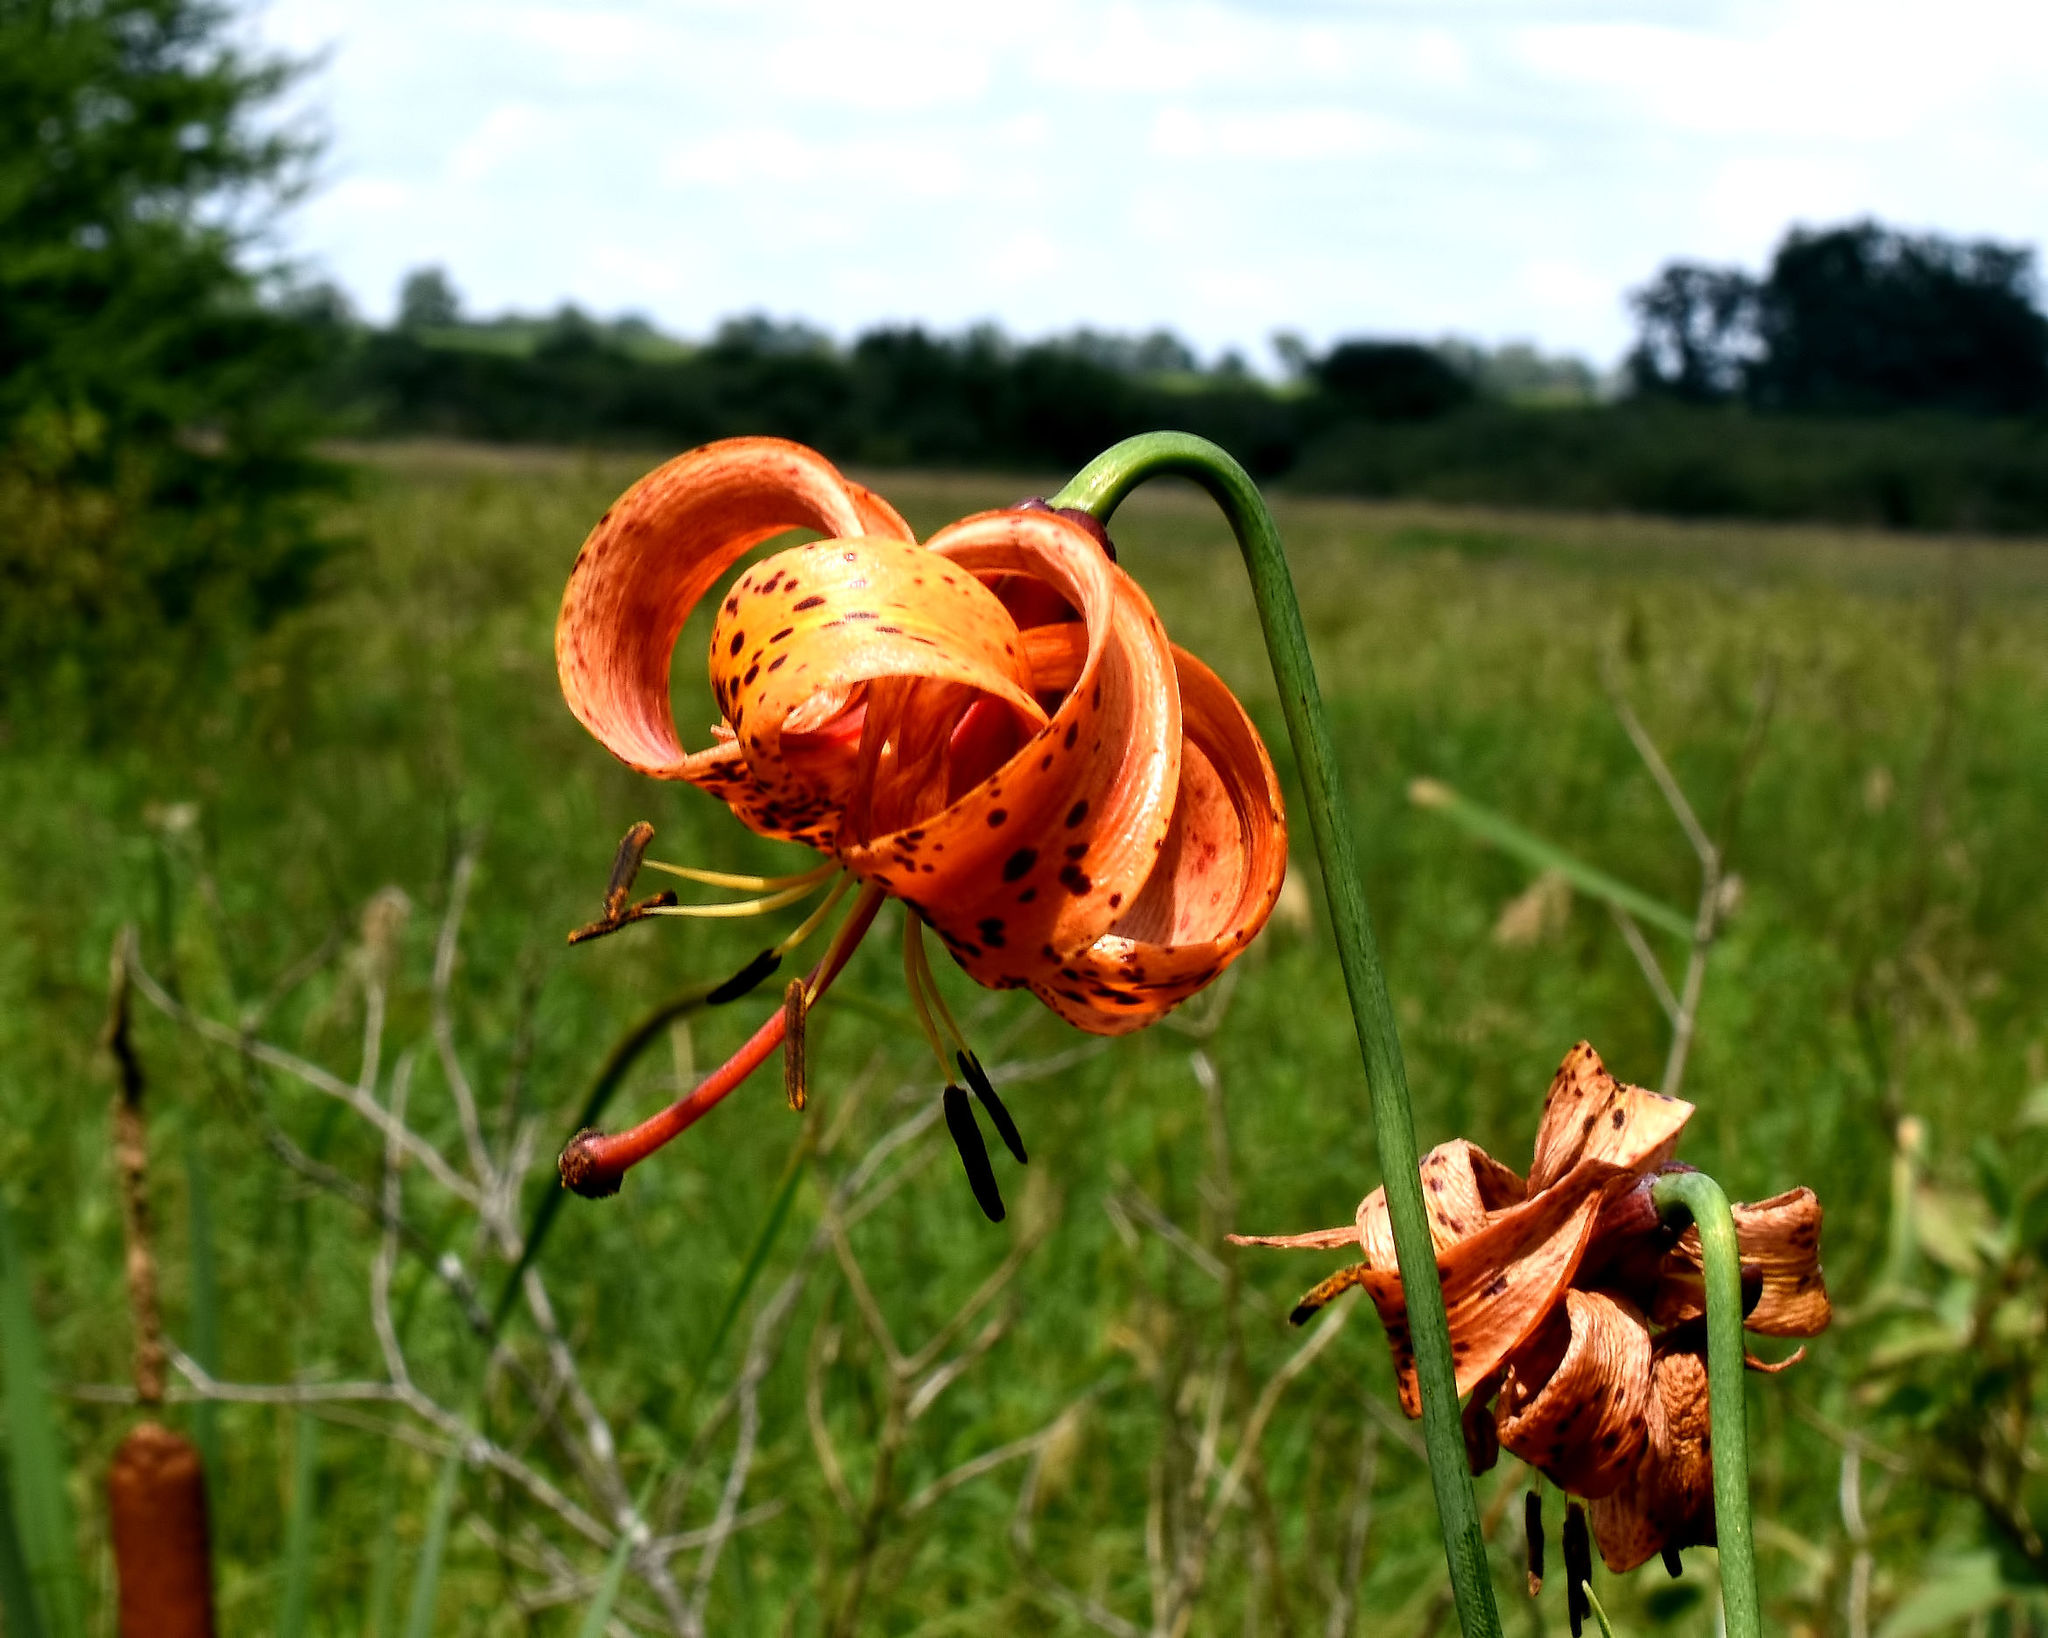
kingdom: Plantae
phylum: Tracheophyta
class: Liliopsida
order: Liliales
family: Liliaceae
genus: Lilium
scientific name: Lilium michiganense
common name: Michigan lily
